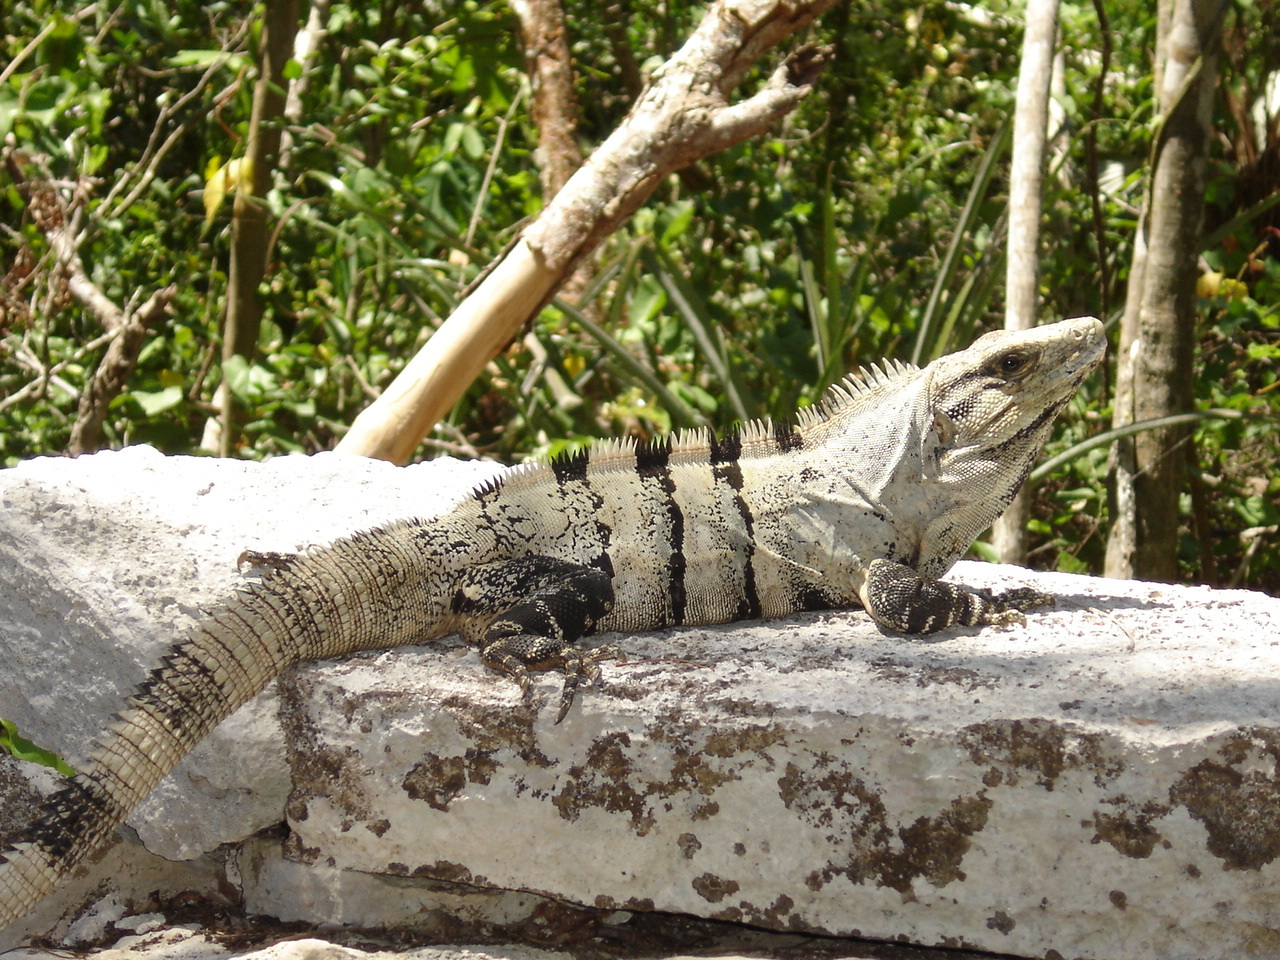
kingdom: Animalia
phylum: Chordata
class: Squamata
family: Iguanidae
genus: Ctenosaura
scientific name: Ctenosaura similis
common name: Black spiny-tailed iguana
